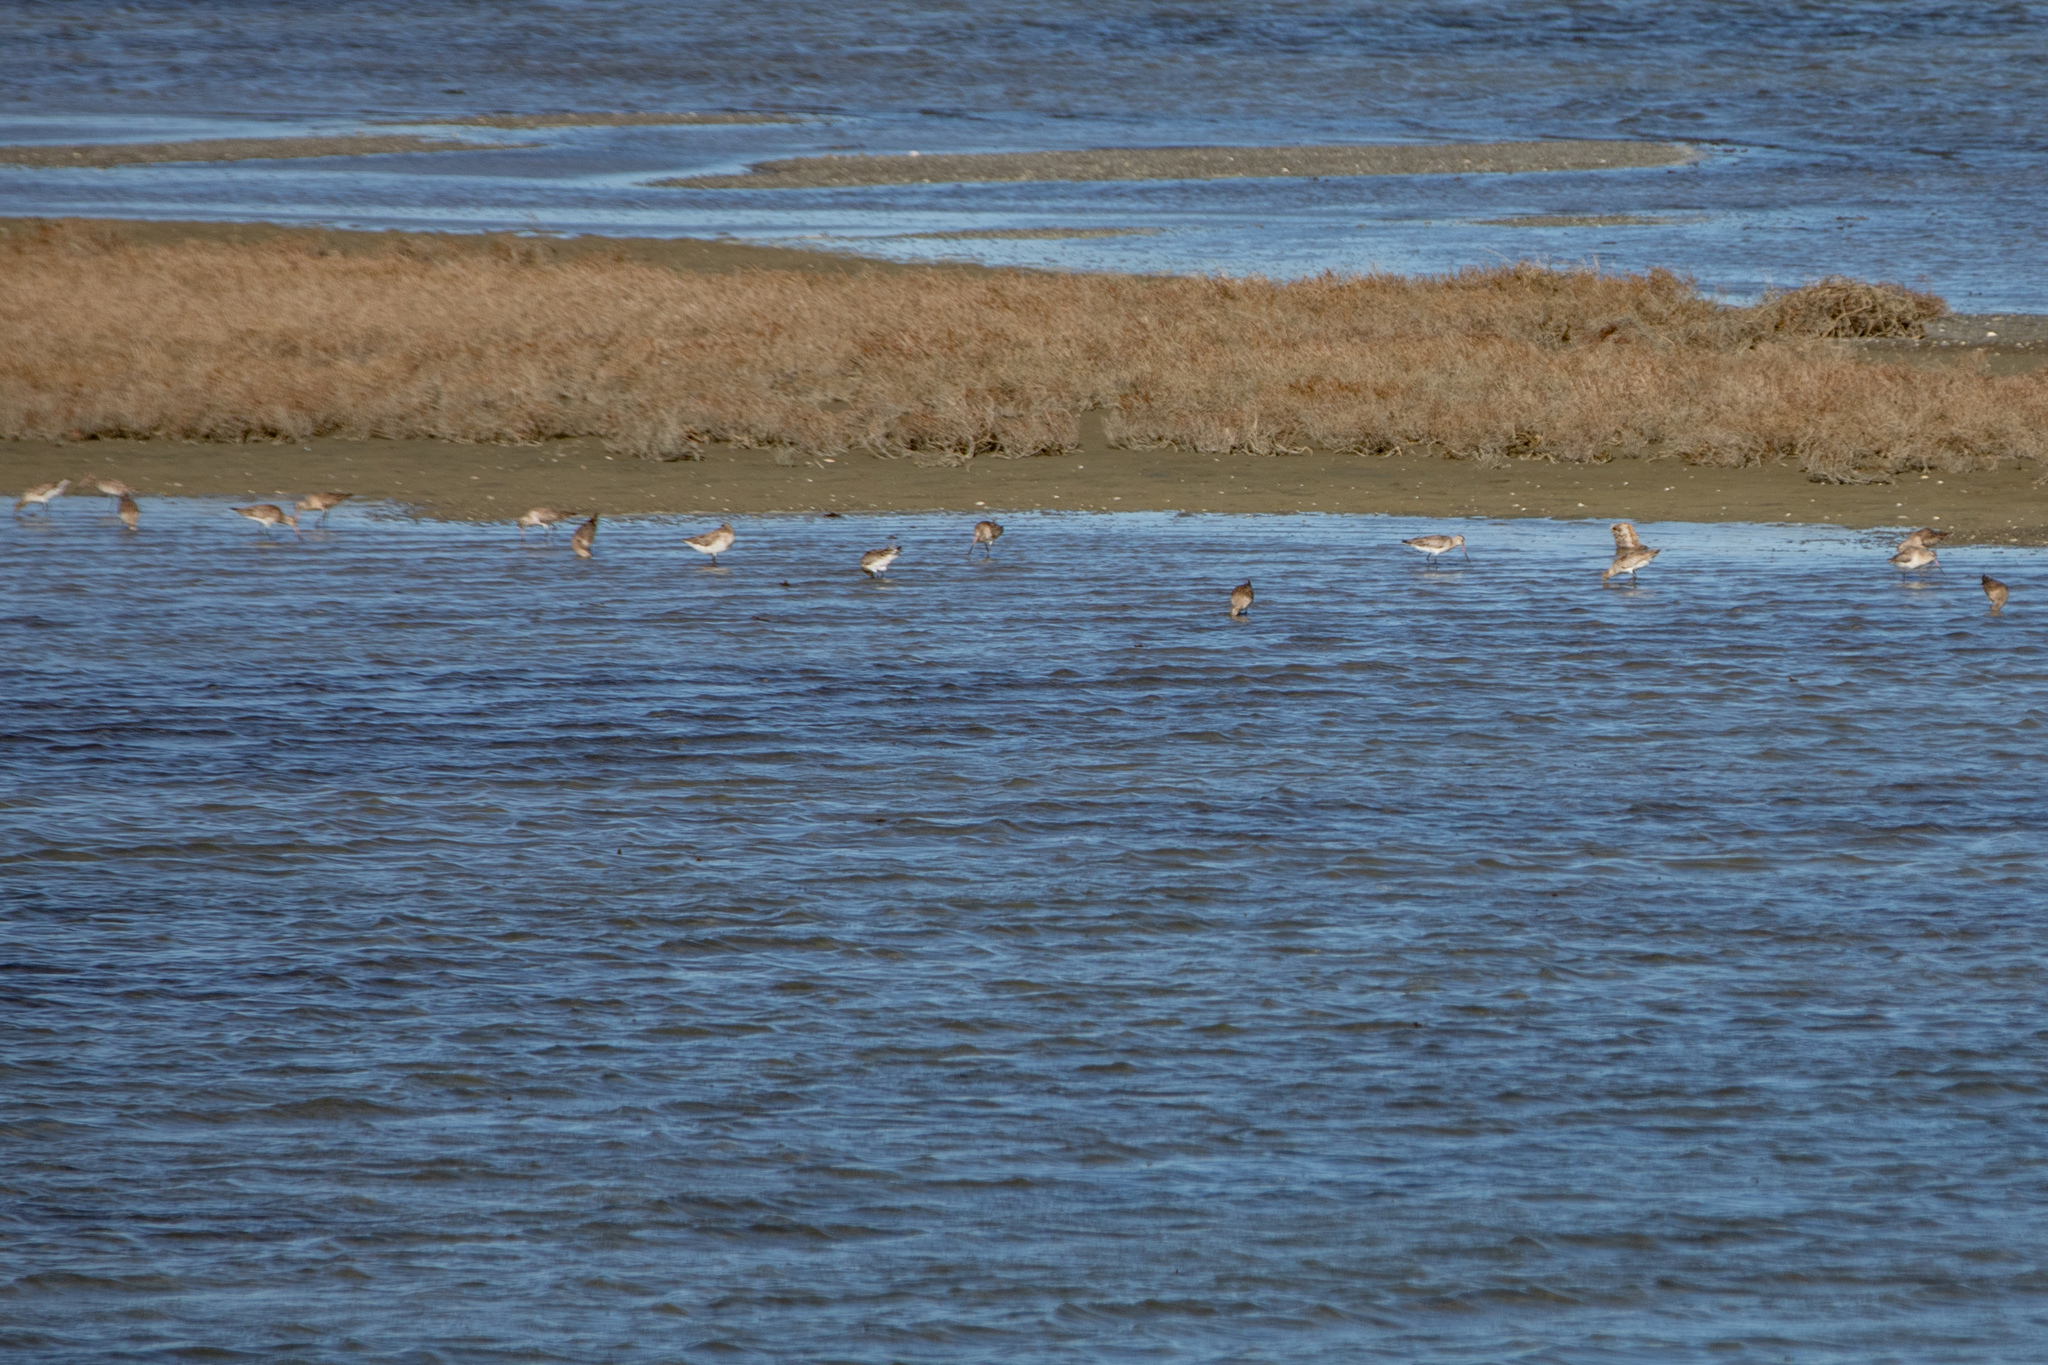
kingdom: Animalia
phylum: Chordata
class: Aves
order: Charadriiformes
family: Scolopacidae
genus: Limosa
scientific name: Limosa lapponica
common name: Bar-tailed godwit
